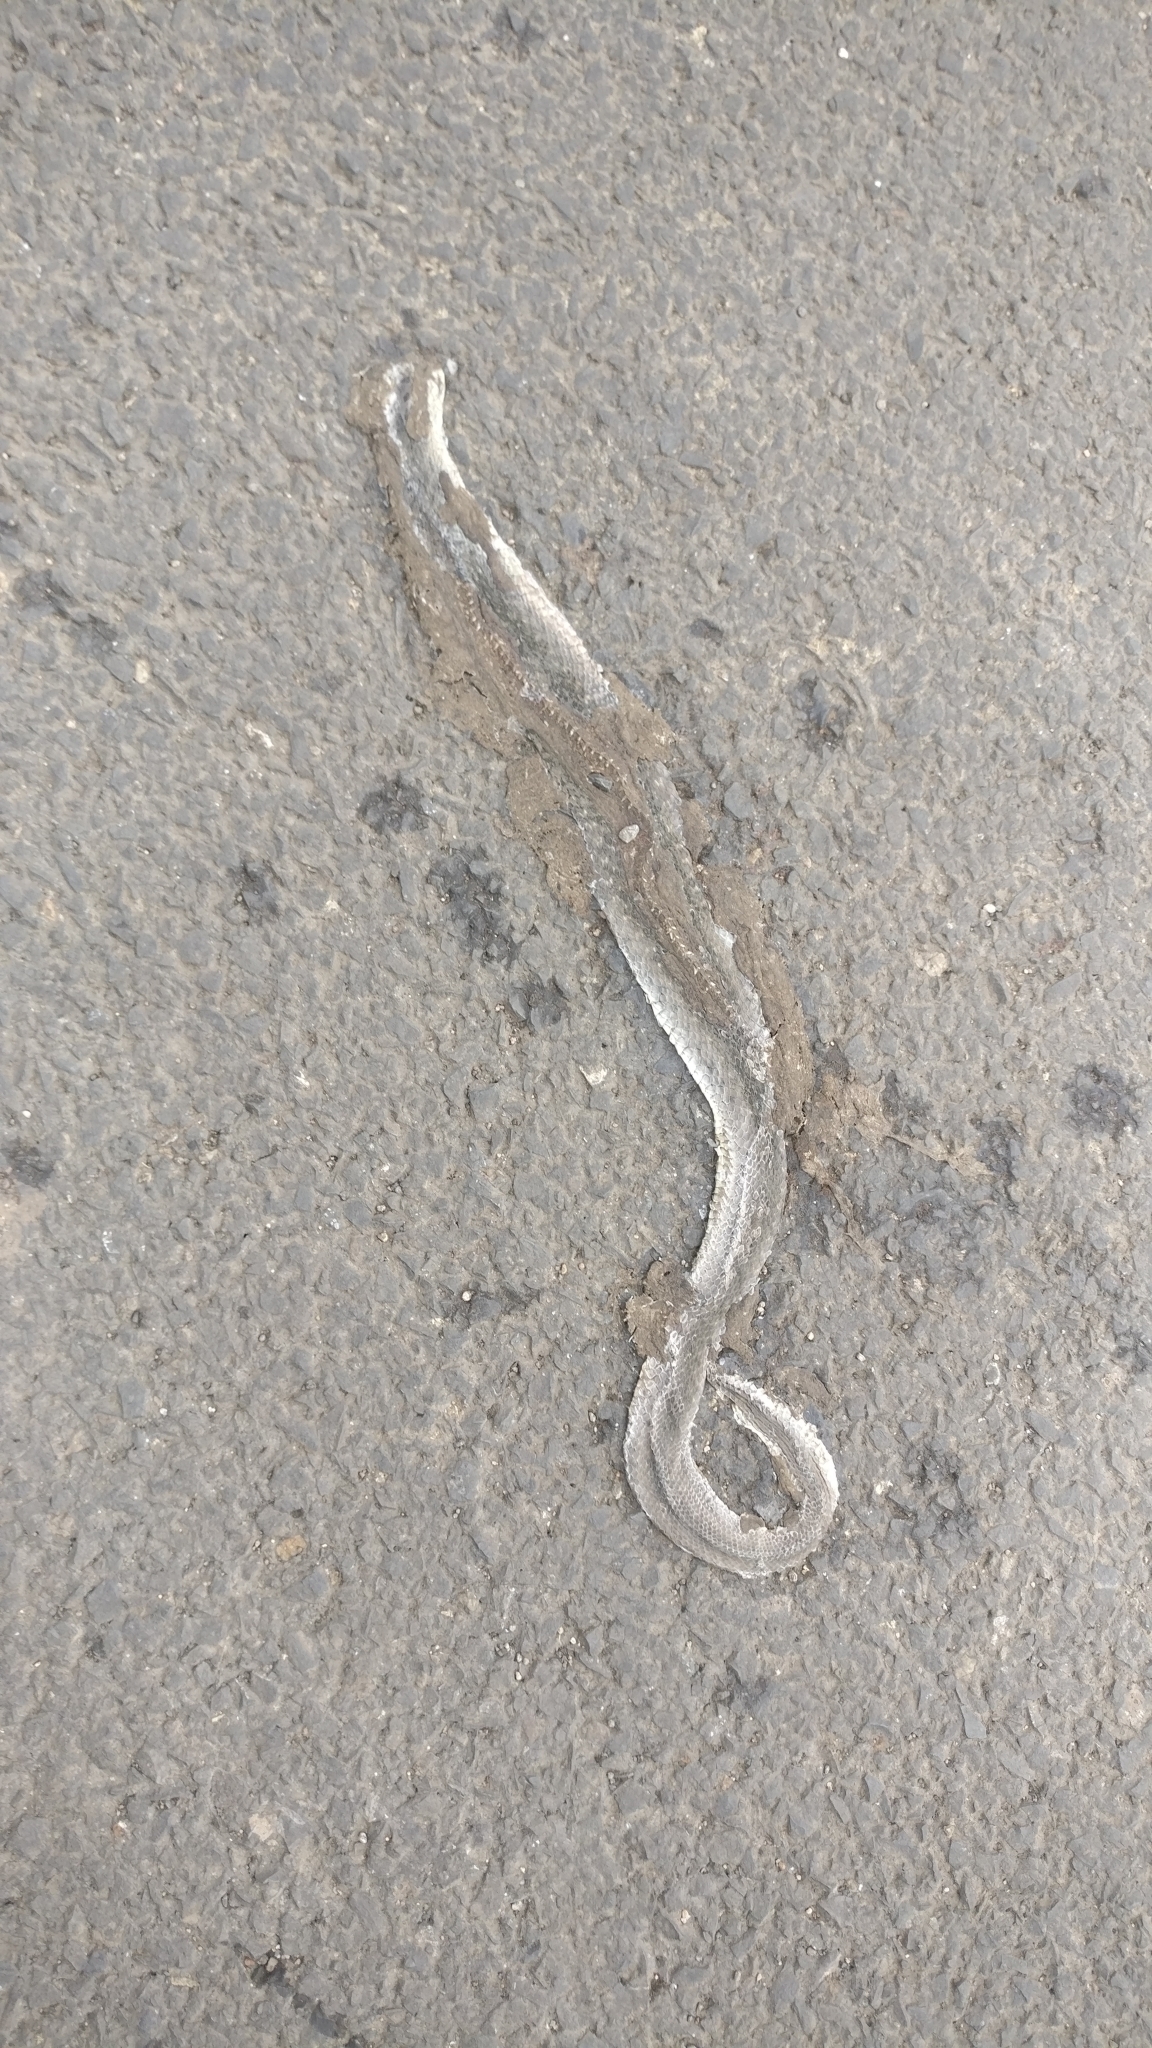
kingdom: Animalia
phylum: Chordata
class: Squamata
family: Colubridae
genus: Fowlea
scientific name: Fowlea piscator
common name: Asiatic water snake
